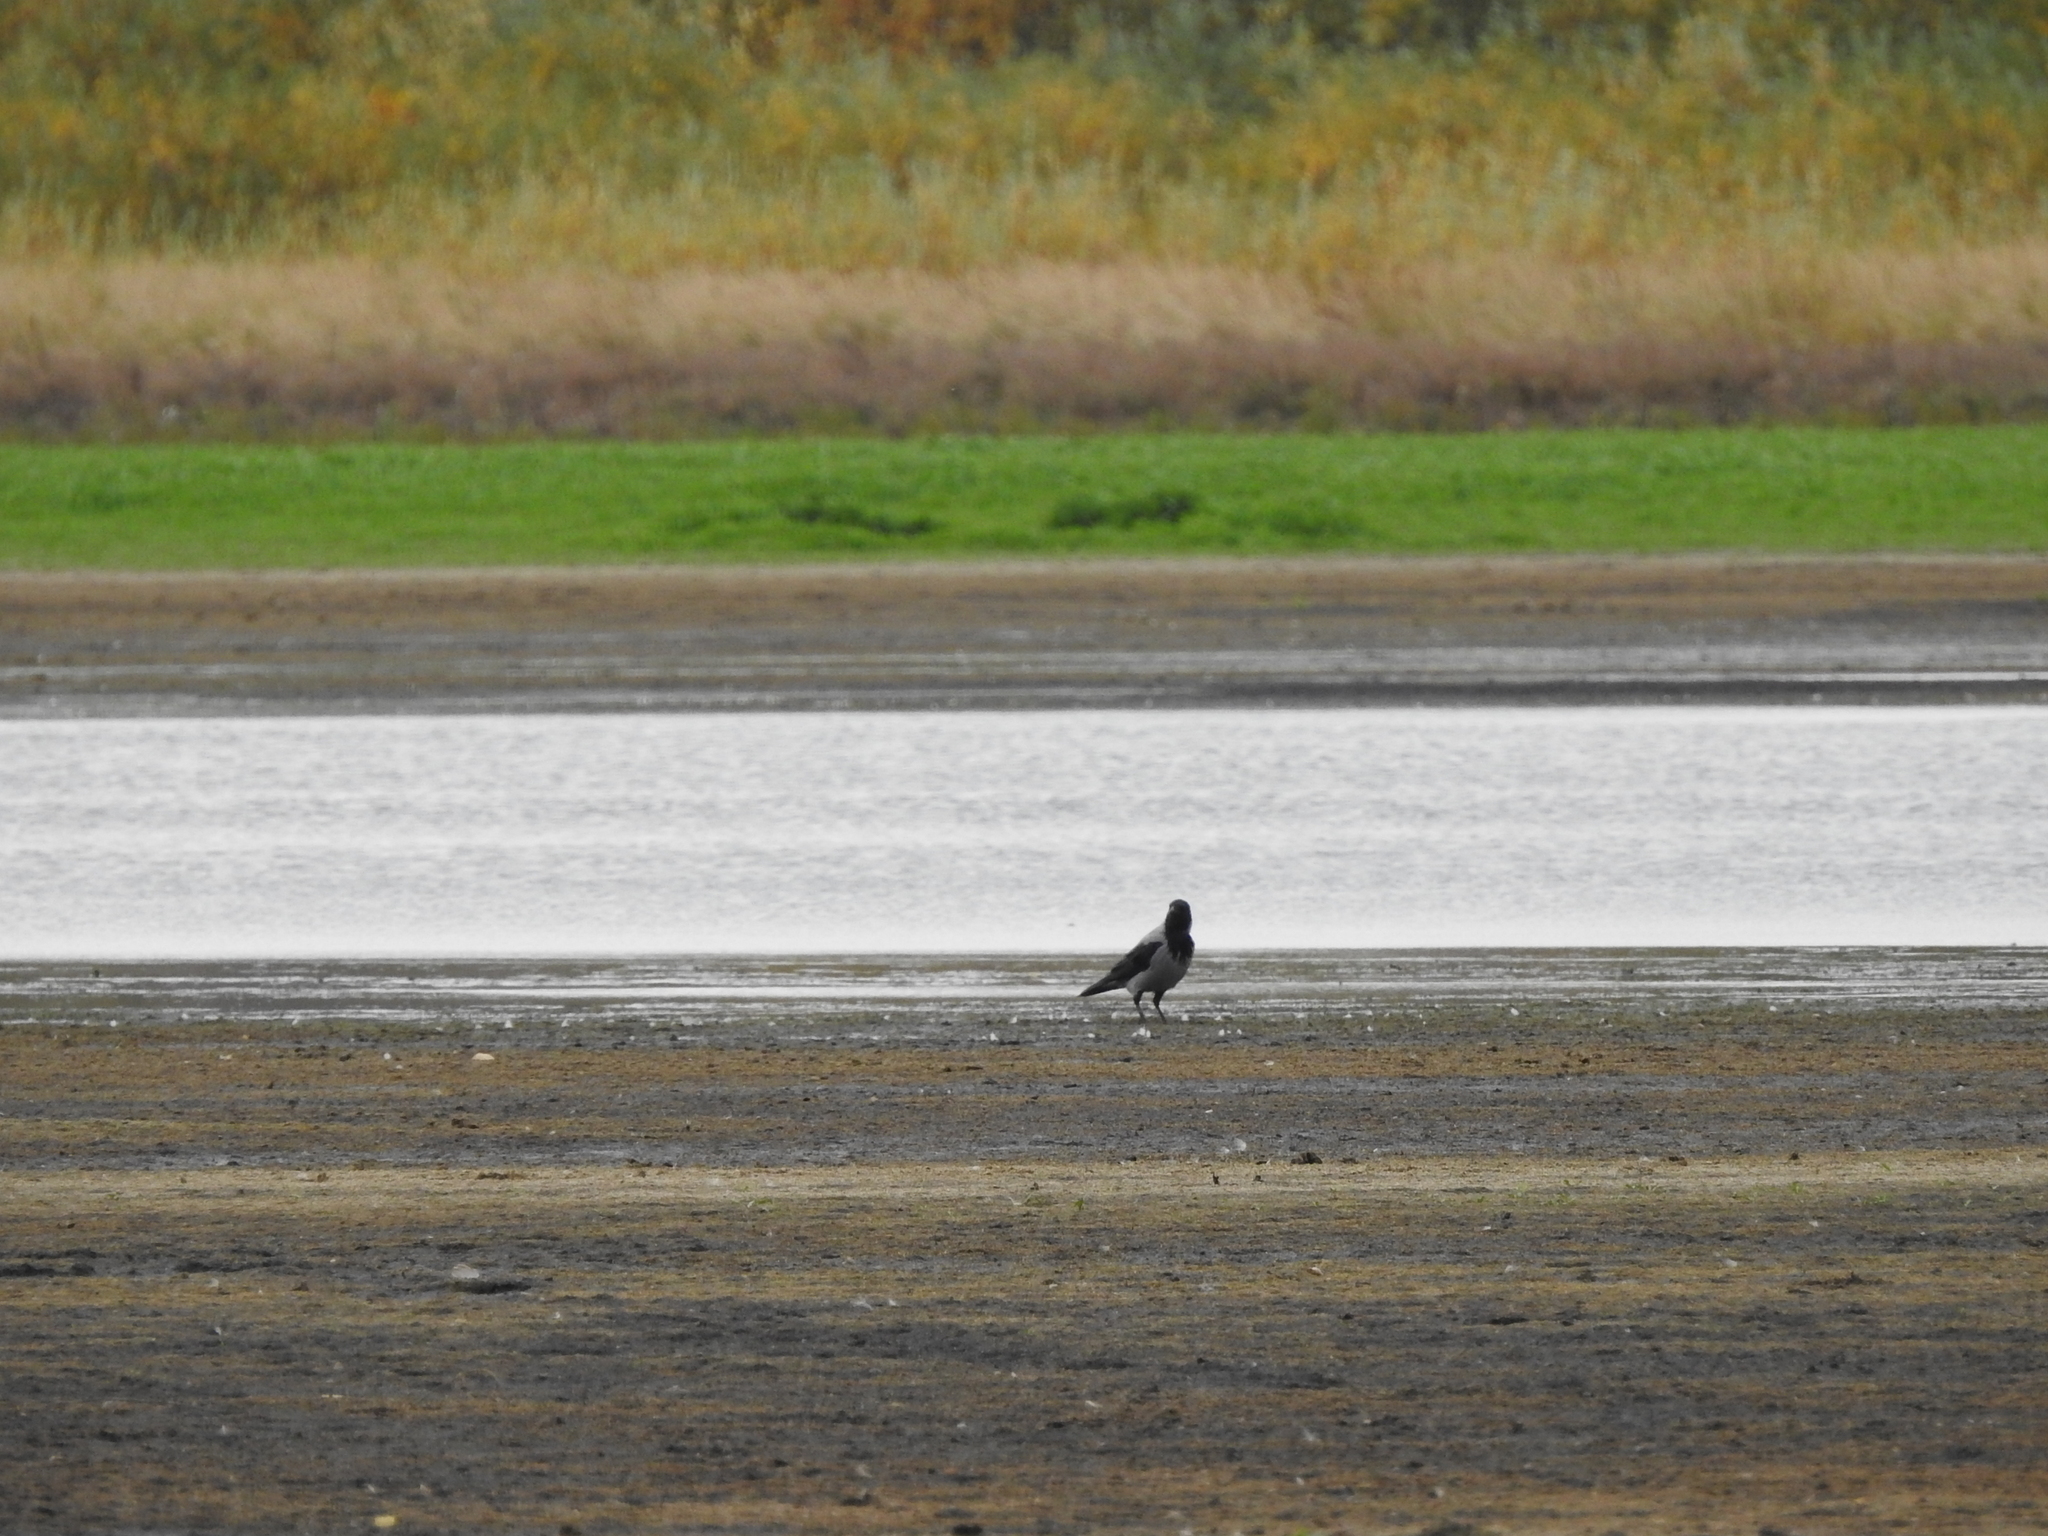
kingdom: Animalia
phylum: Chordata
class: Aves
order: Passeriformes
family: Corvidae
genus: Corvus
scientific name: Corvus cornix
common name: Hooded crow
